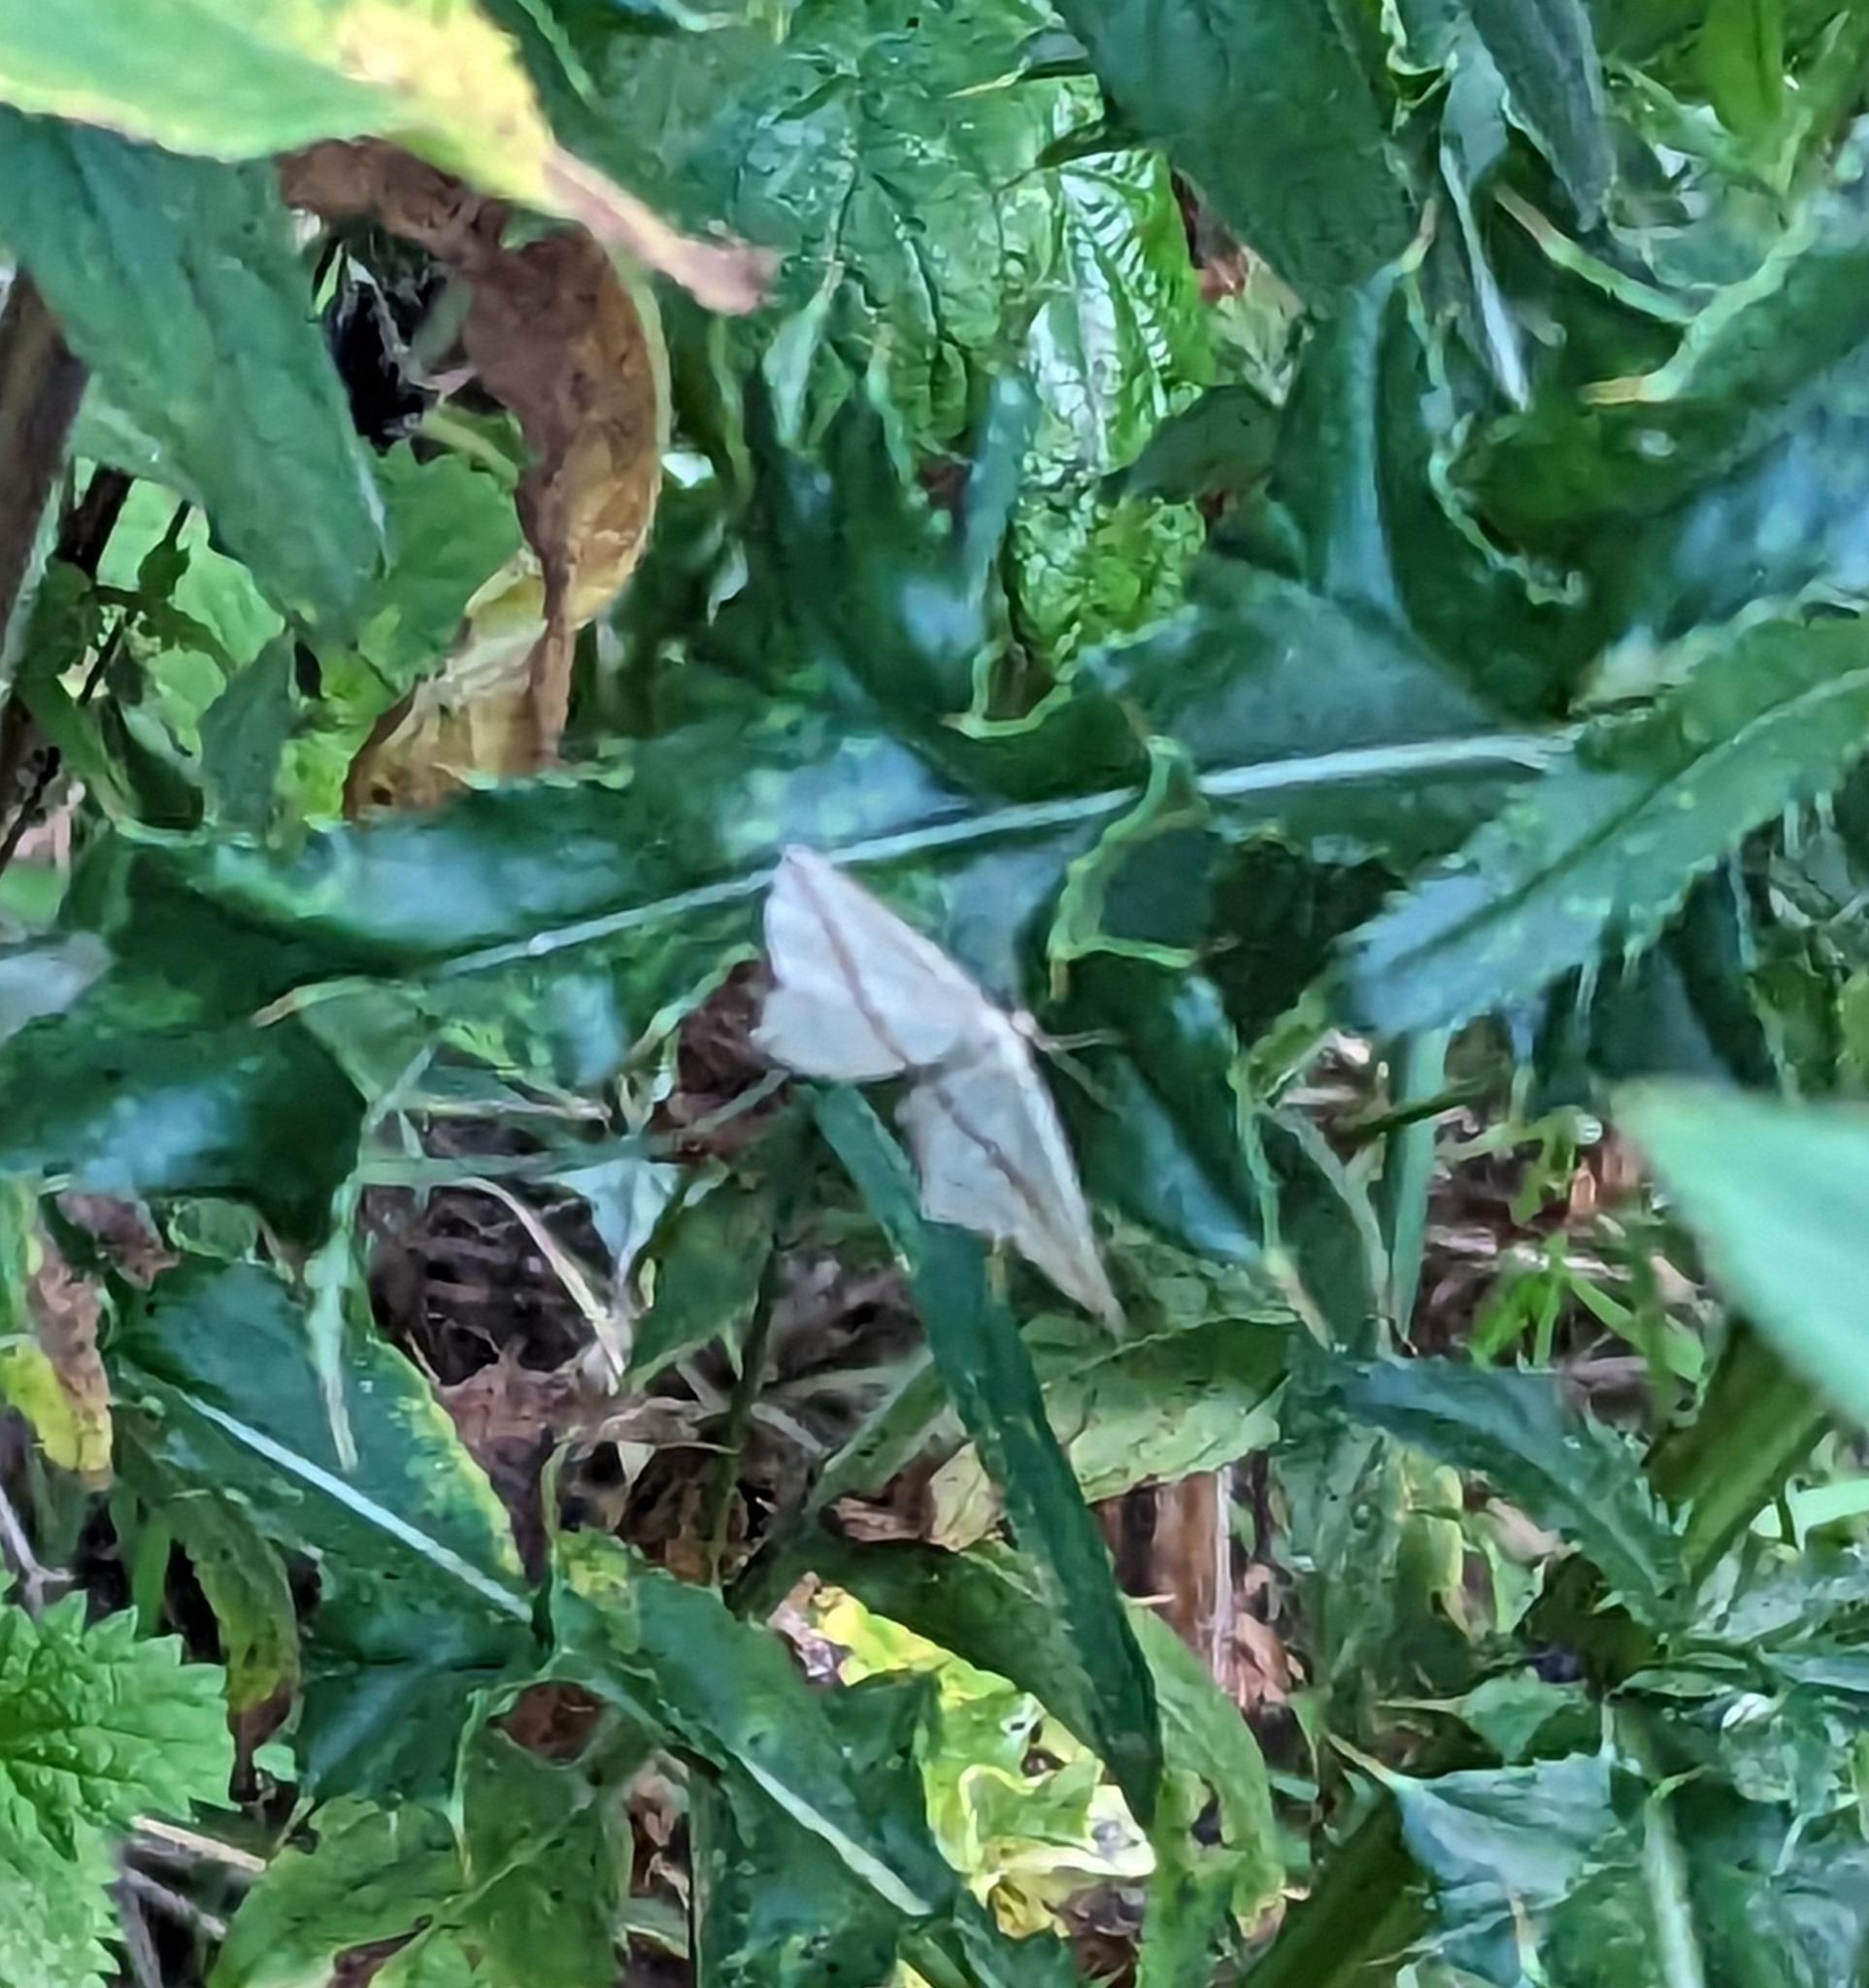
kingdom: Animalia
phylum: Arthropoda
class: Insecta
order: Lepidoptera
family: Geometridae
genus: Timandra
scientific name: Timandra comae
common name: Blood-vein
